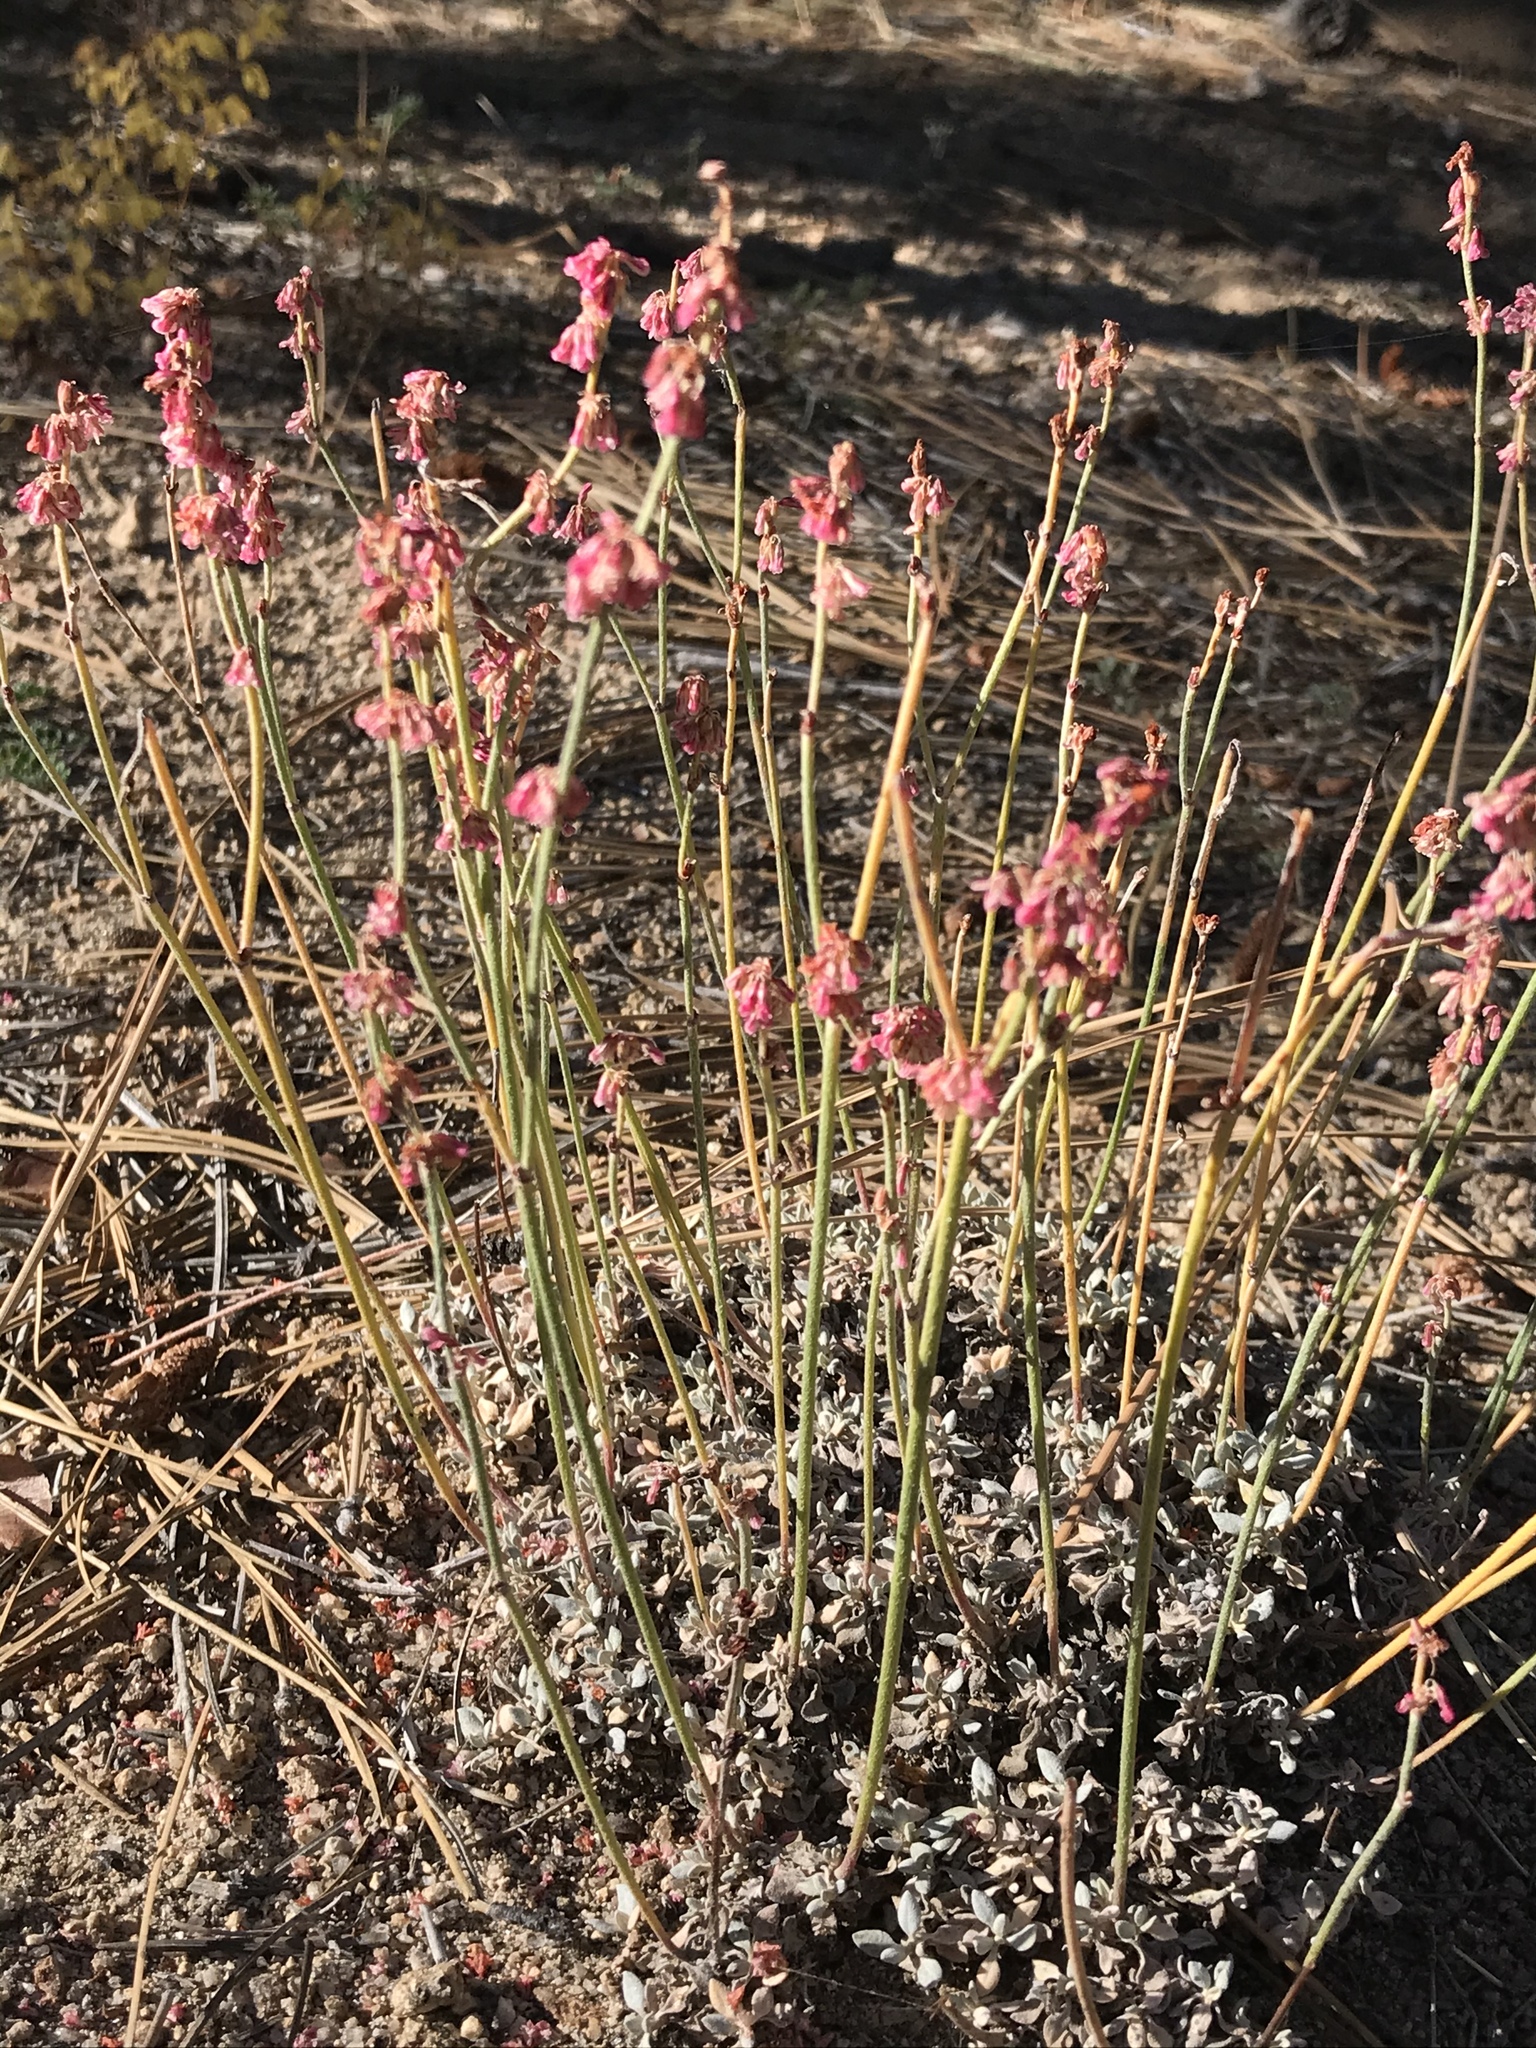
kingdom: Plantae
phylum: Tracheophyta
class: Magnoliopsida
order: Caryophyllales
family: Polygonaceae
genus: Eriogonum
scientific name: Eriogonum wrightii
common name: Bastard-sage
